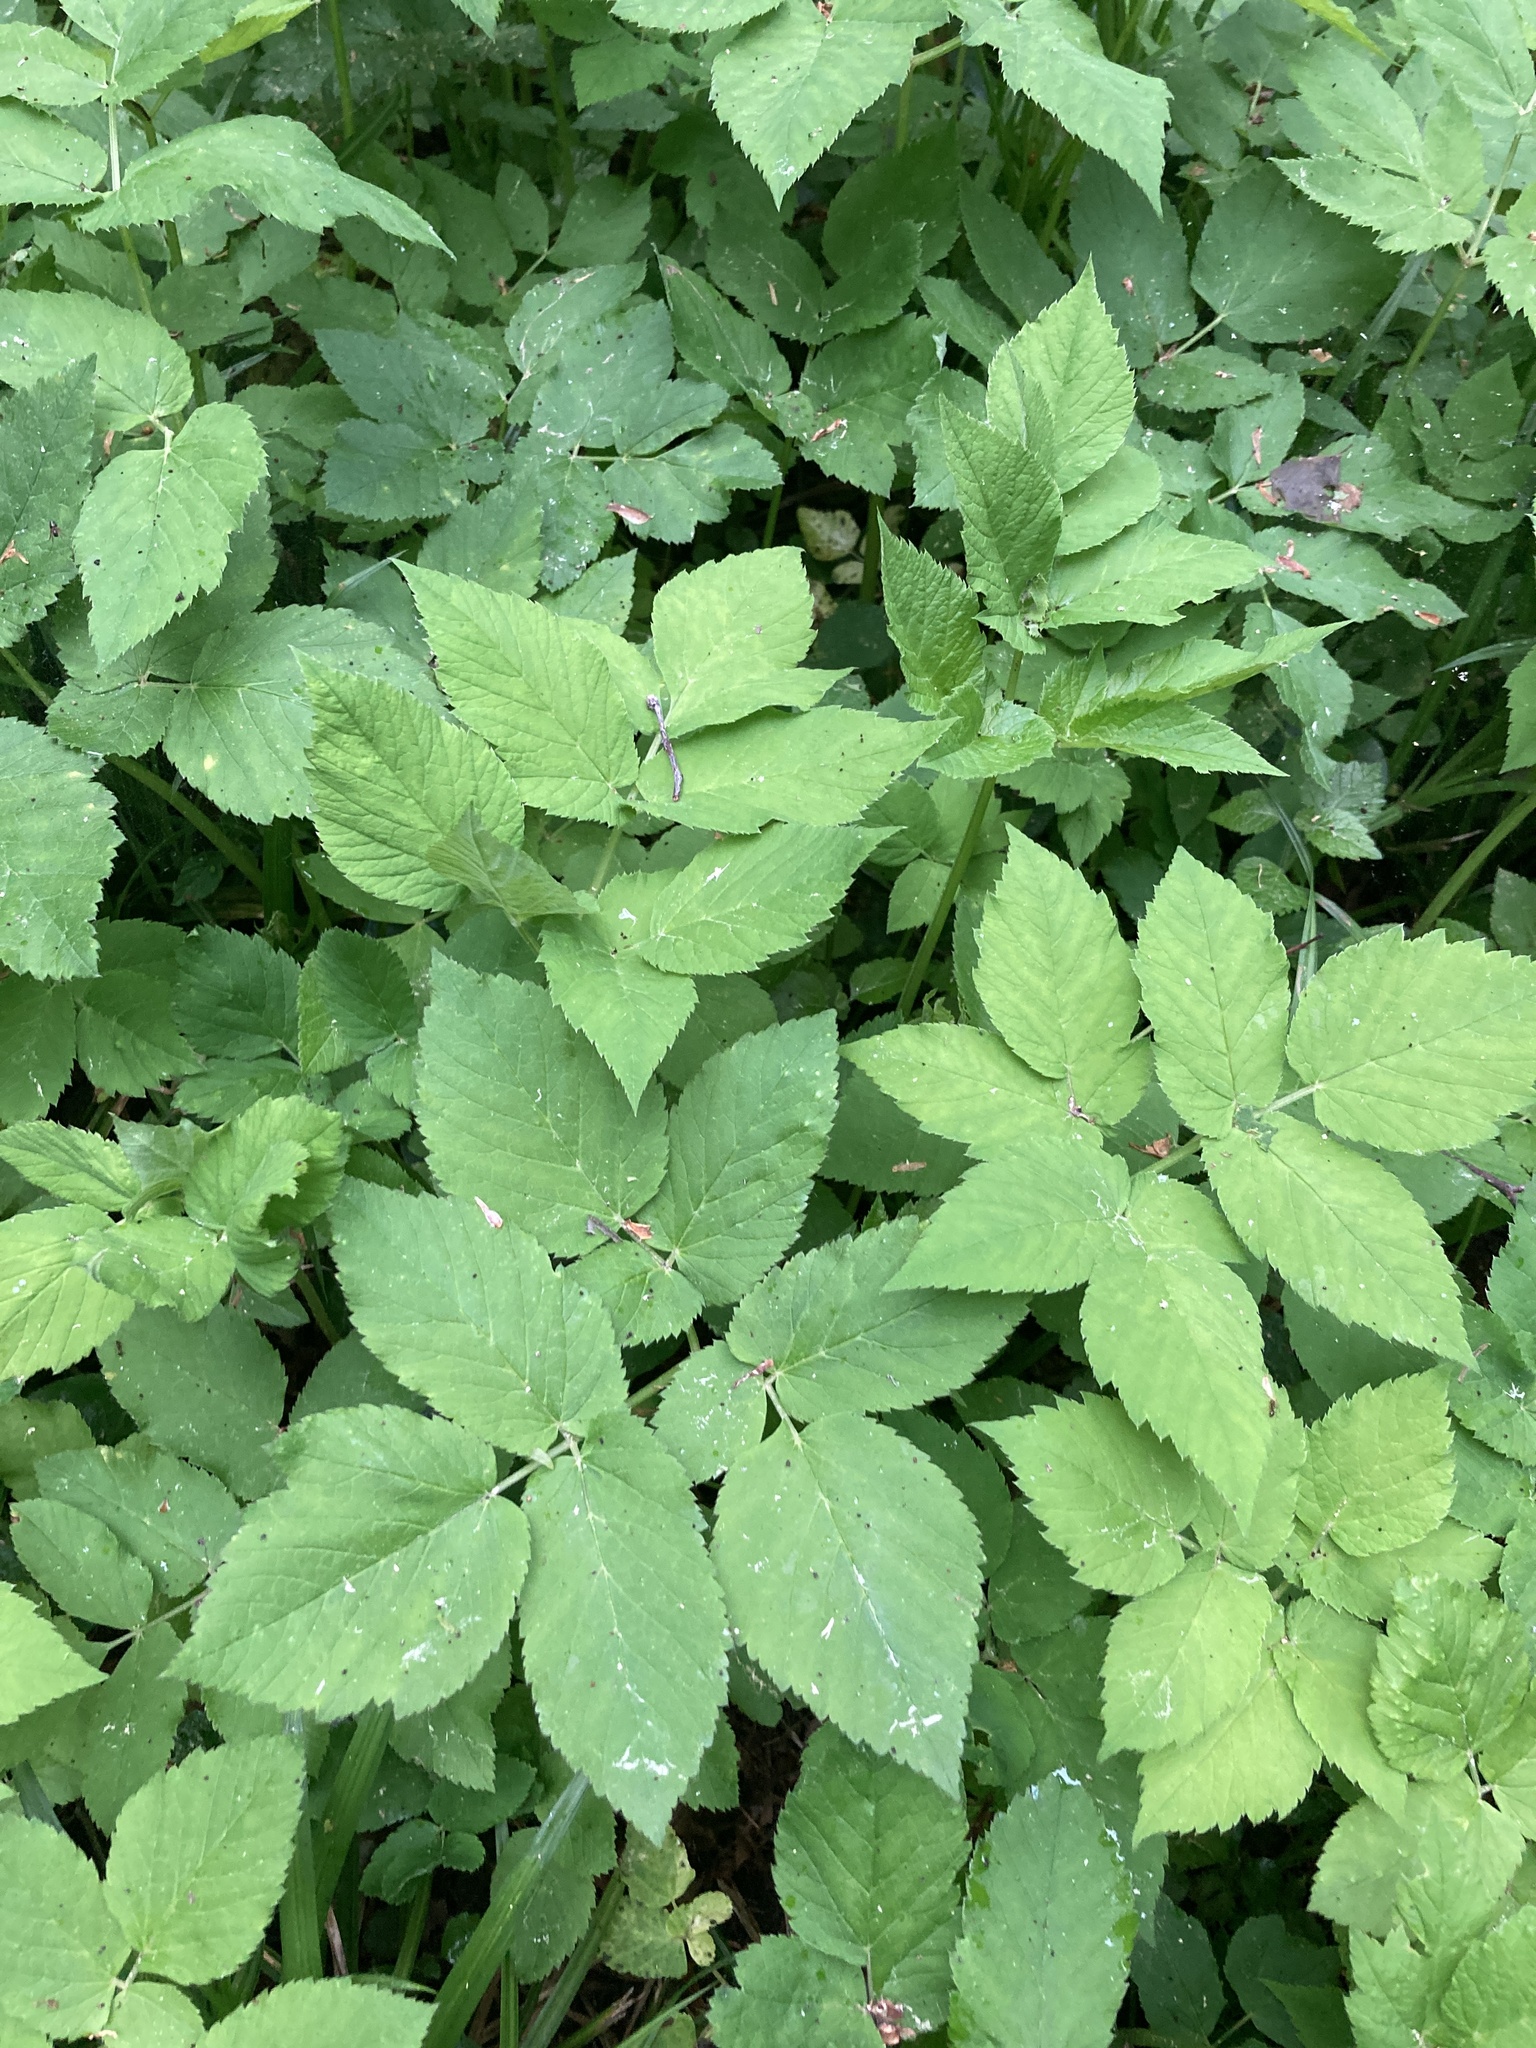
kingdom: Plantae
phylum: Tracheophyta
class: Magnoliopsida
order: Apiales
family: Apiaceae
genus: Aegopodium
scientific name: Aegopodium podagraria
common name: Ground-elder
